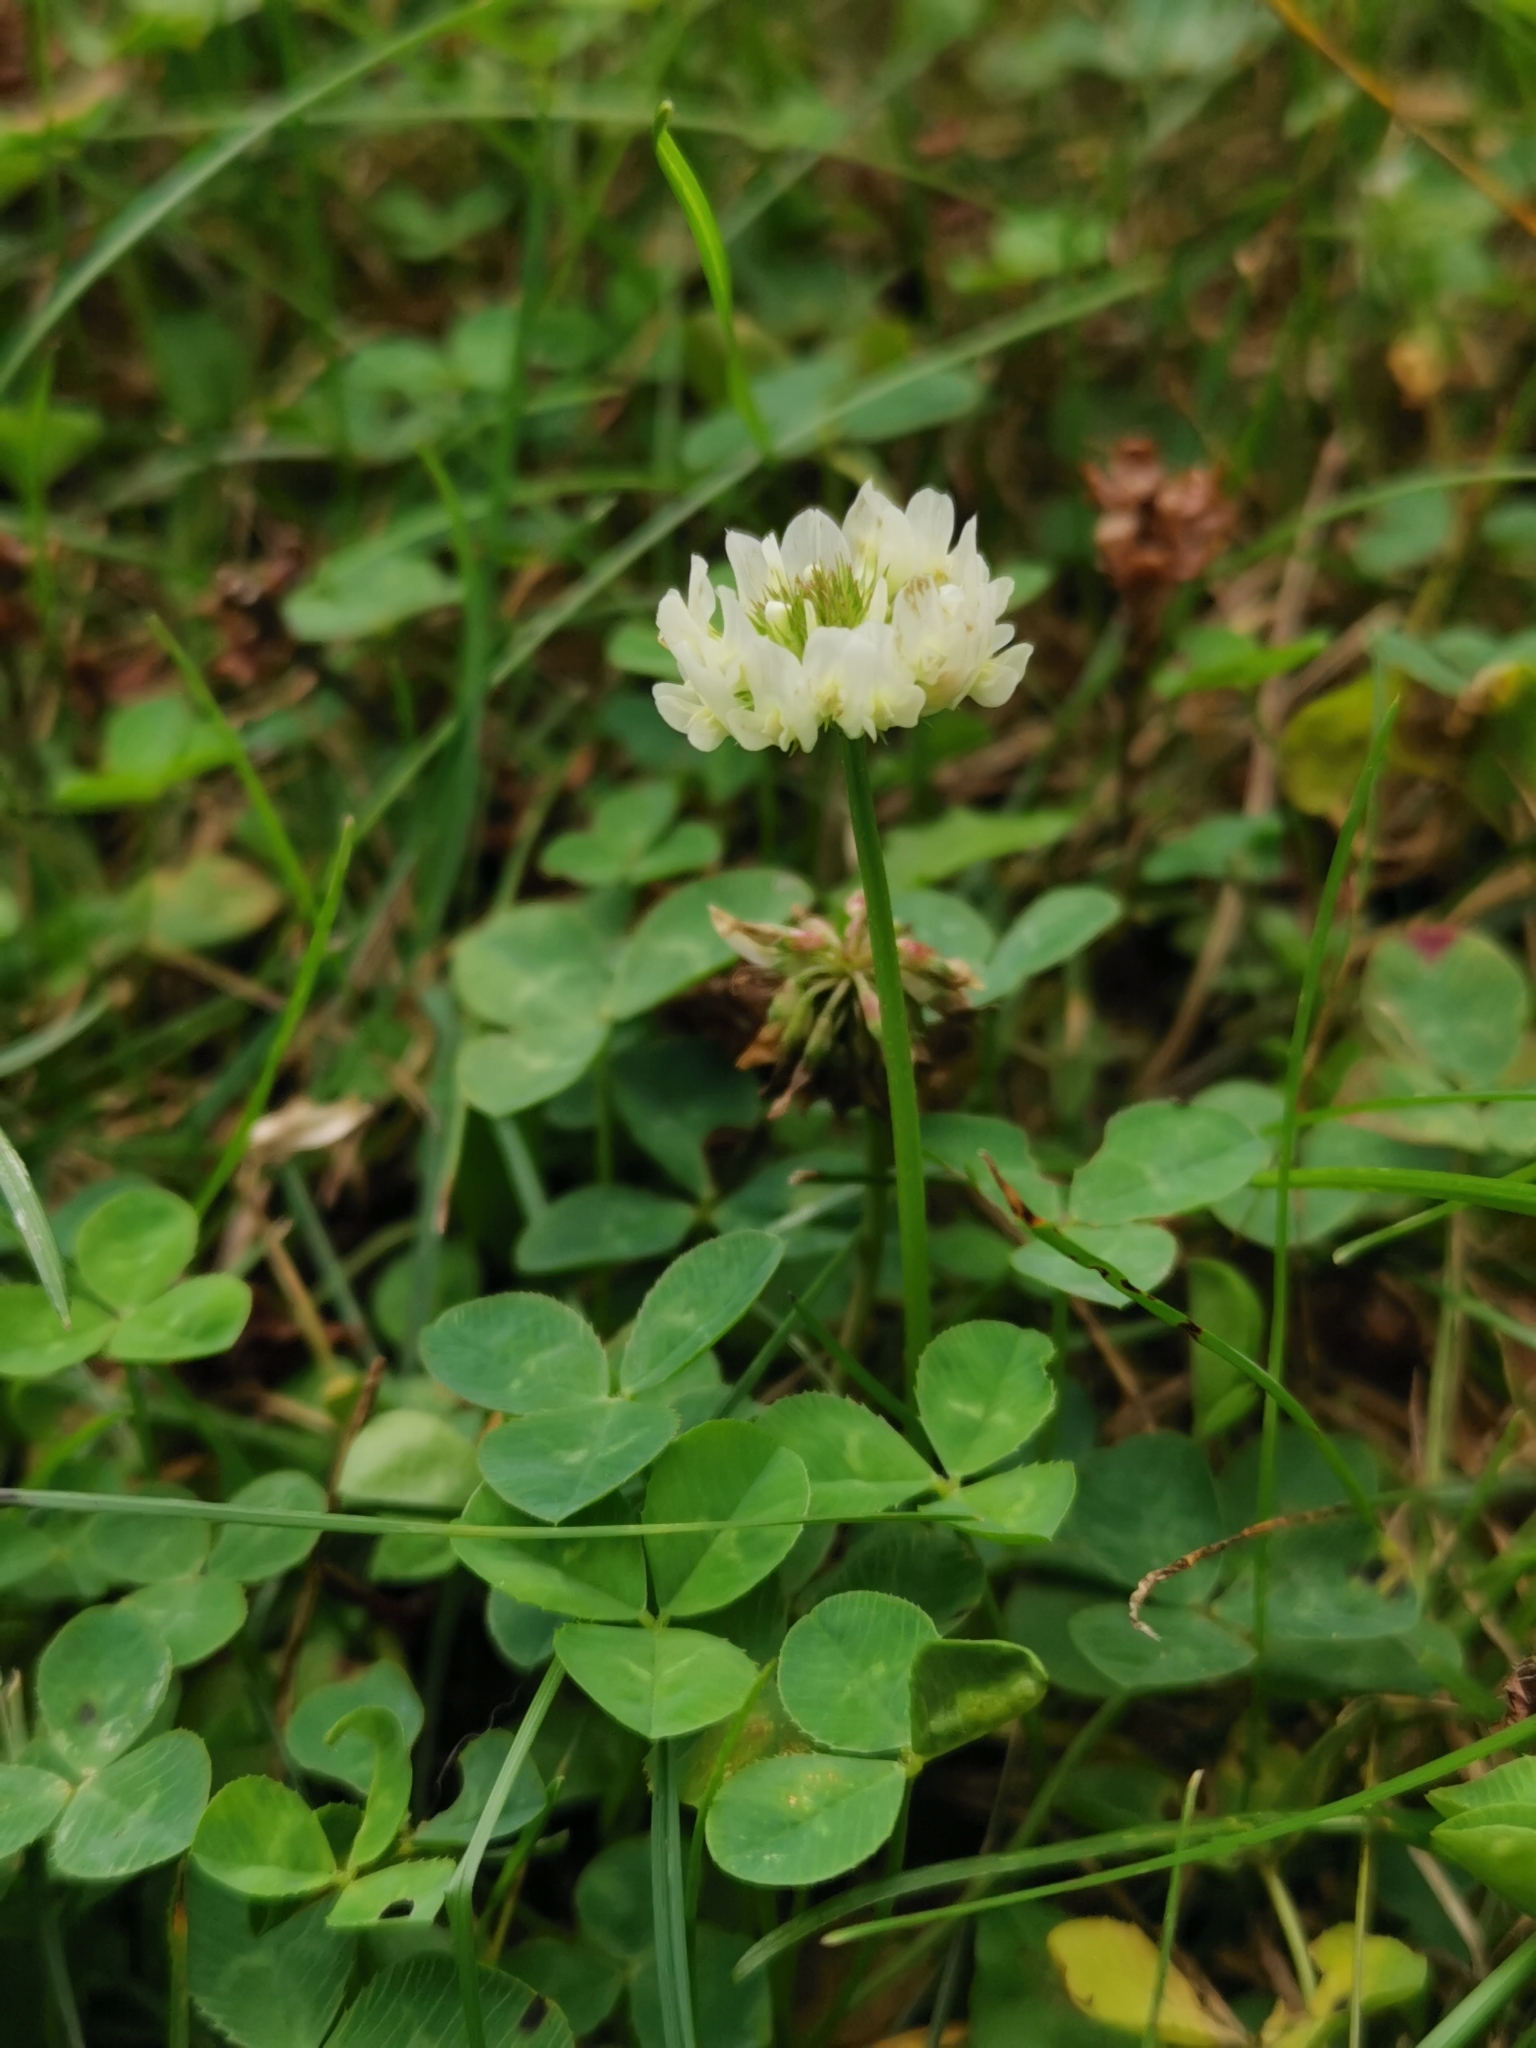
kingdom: Plantae
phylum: Tracheophyta
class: Magnoliopsida
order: Fabales
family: Fabaceae
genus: Trifolium
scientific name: Trifolium repens
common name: White clover
